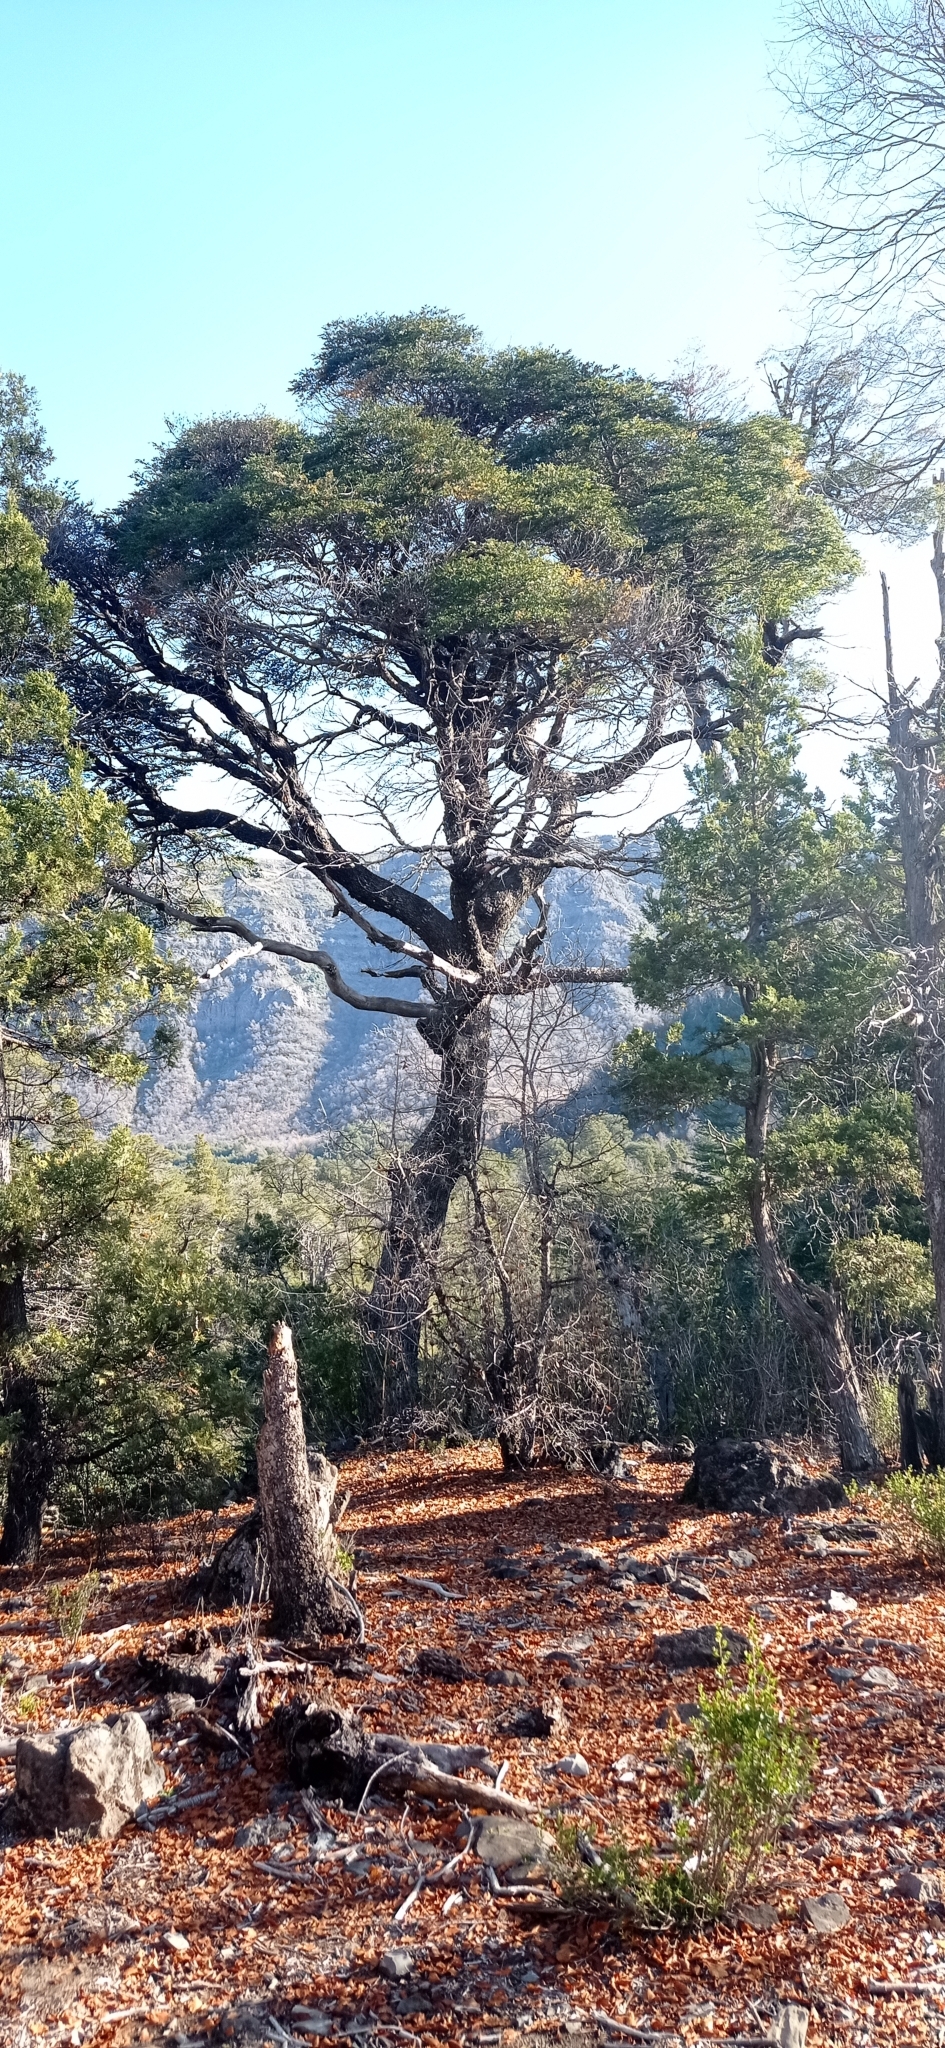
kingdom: Plantae
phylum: Tracheophyta
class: Magnoliopsida
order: Fagales
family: Nothofagaceae
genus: Nothofagus
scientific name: Nothofagus dombeyi
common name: Coigue
